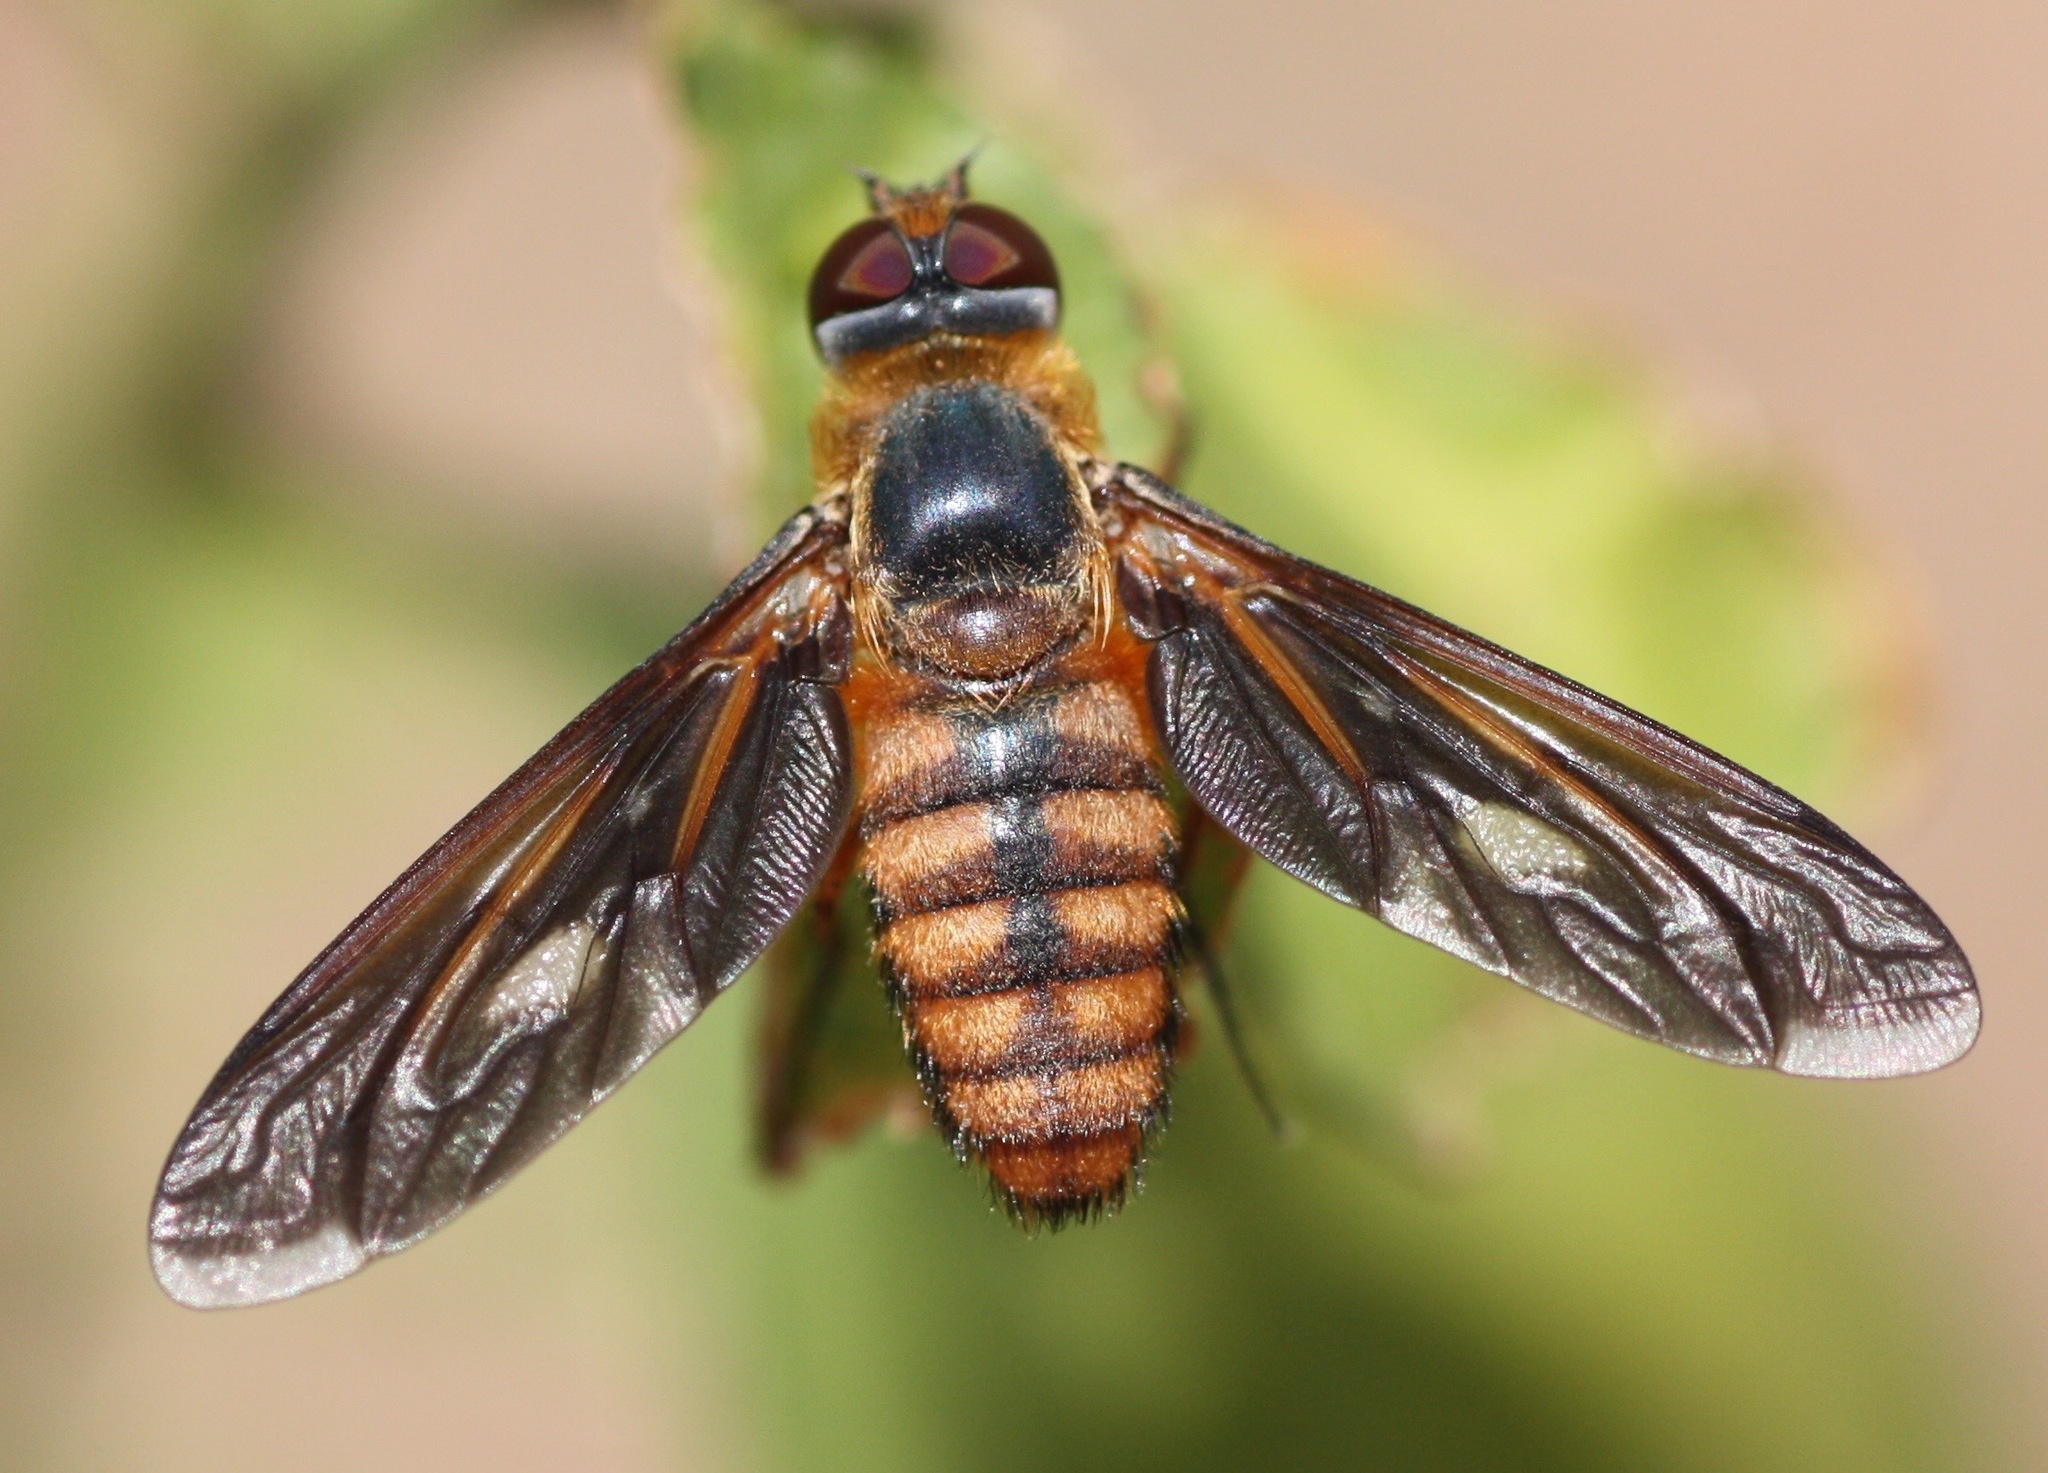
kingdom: Animalia
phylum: Arthropoda
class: Insecta
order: Diptera
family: Bombyliidae
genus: Poecilanthrax
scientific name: Poecilanthrax effrenus
